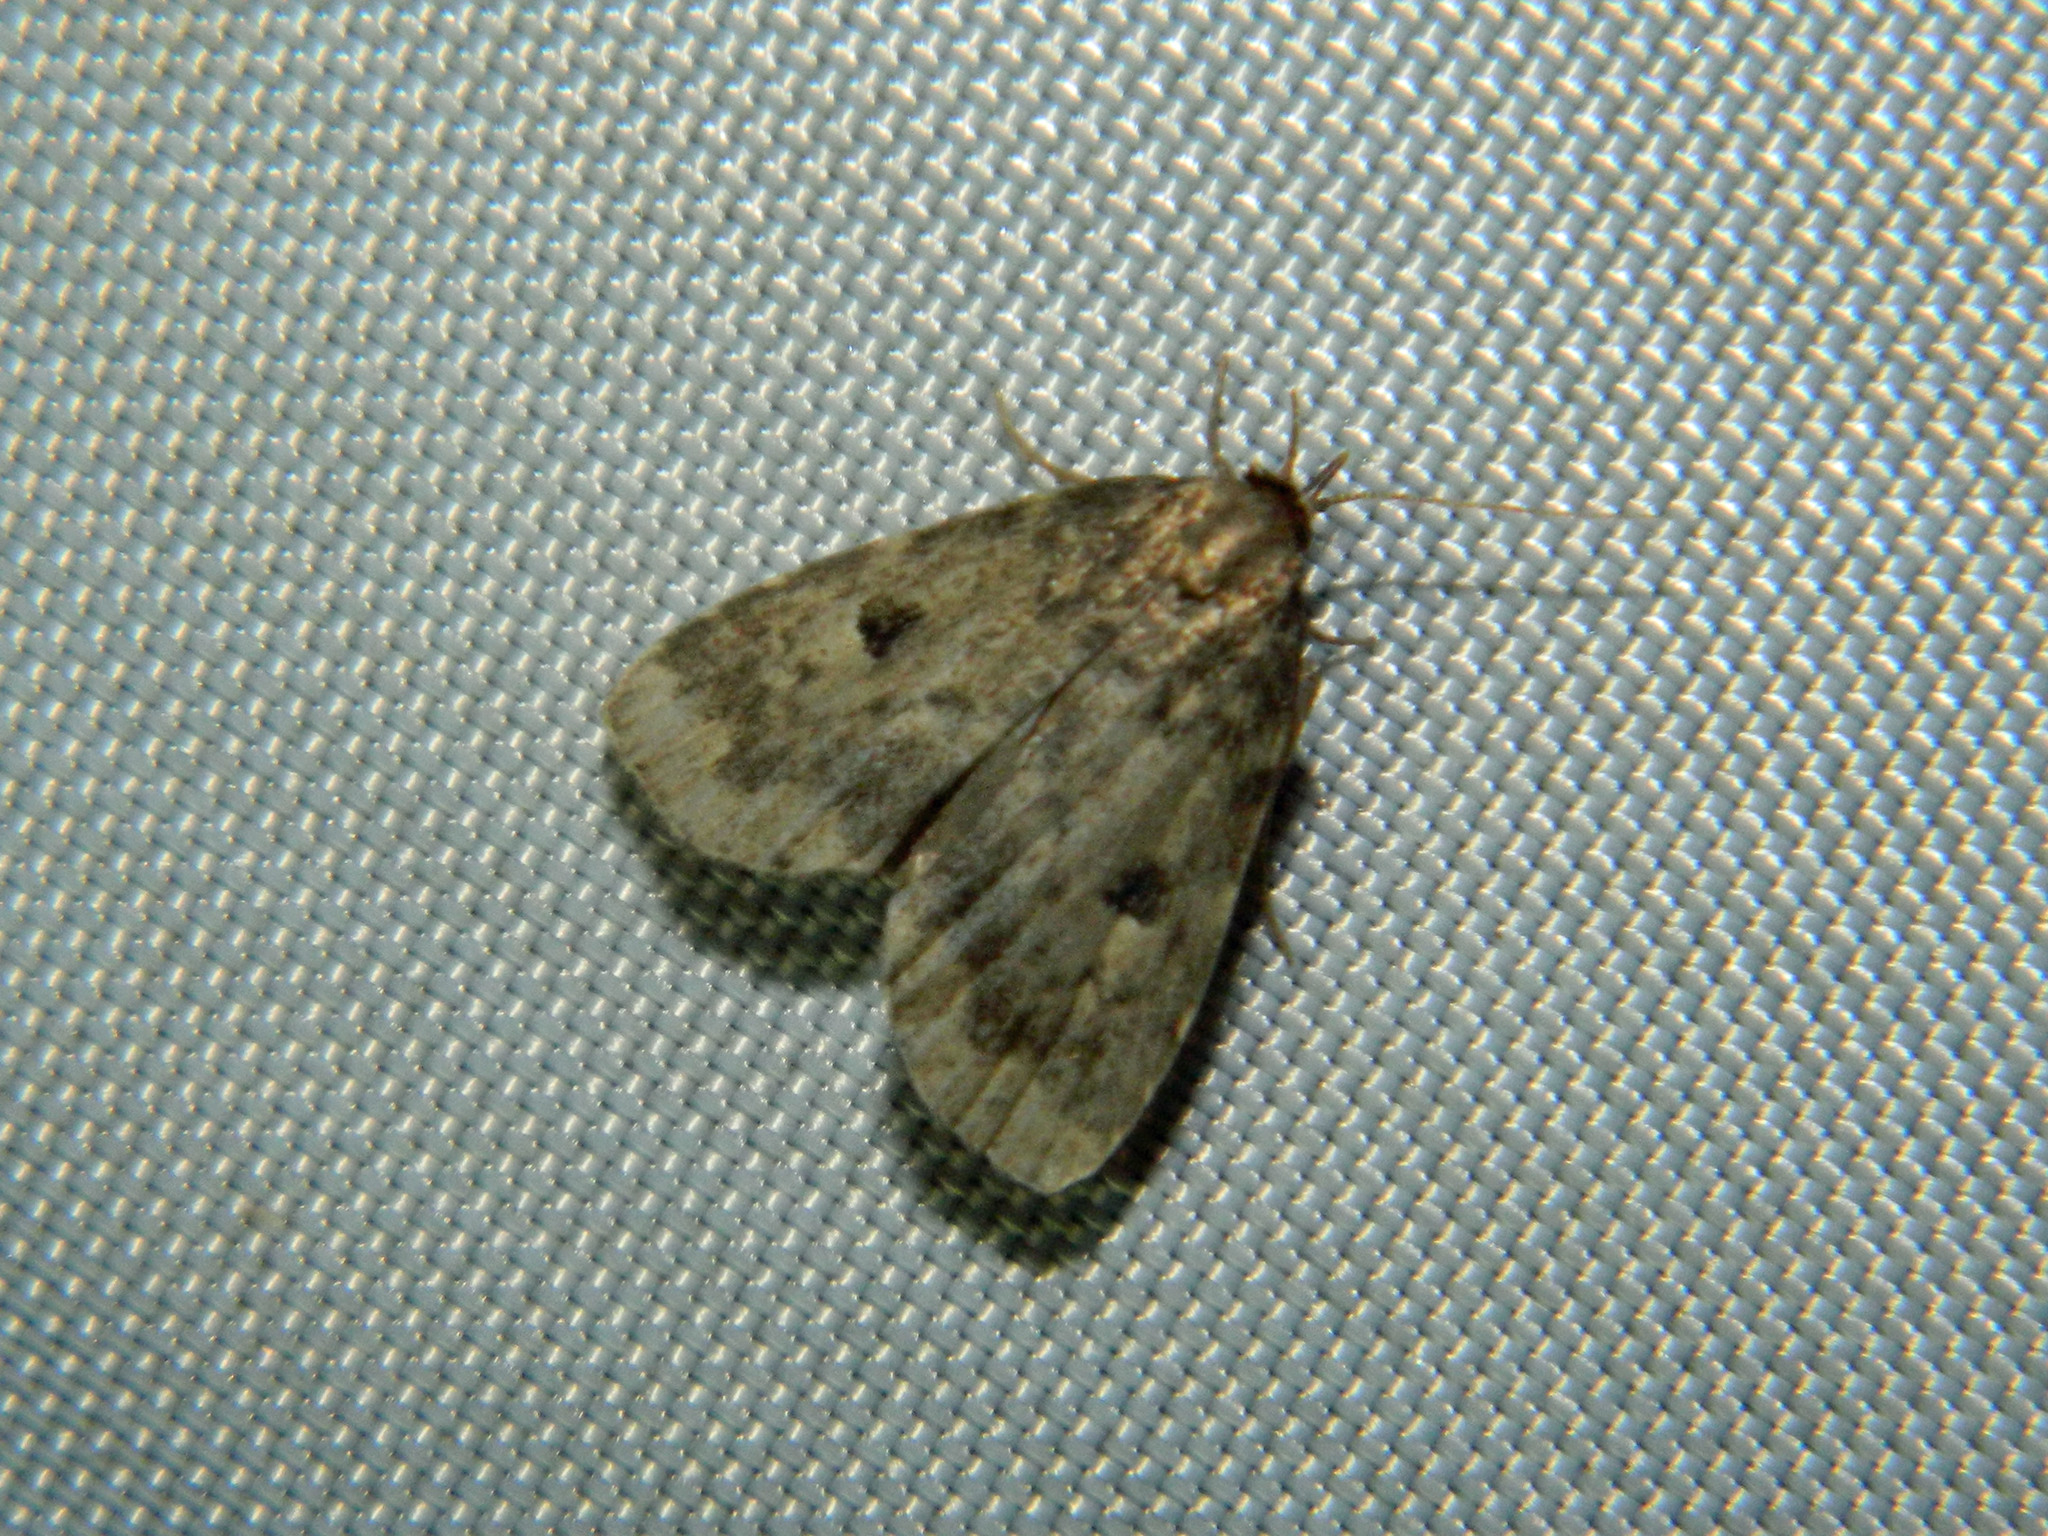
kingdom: Animalia
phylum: Arthropoda
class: Insecta
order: Lepidoptera
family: Erebidae
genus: Paradelta
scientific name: Paradelta Parahypenodes quadralis
